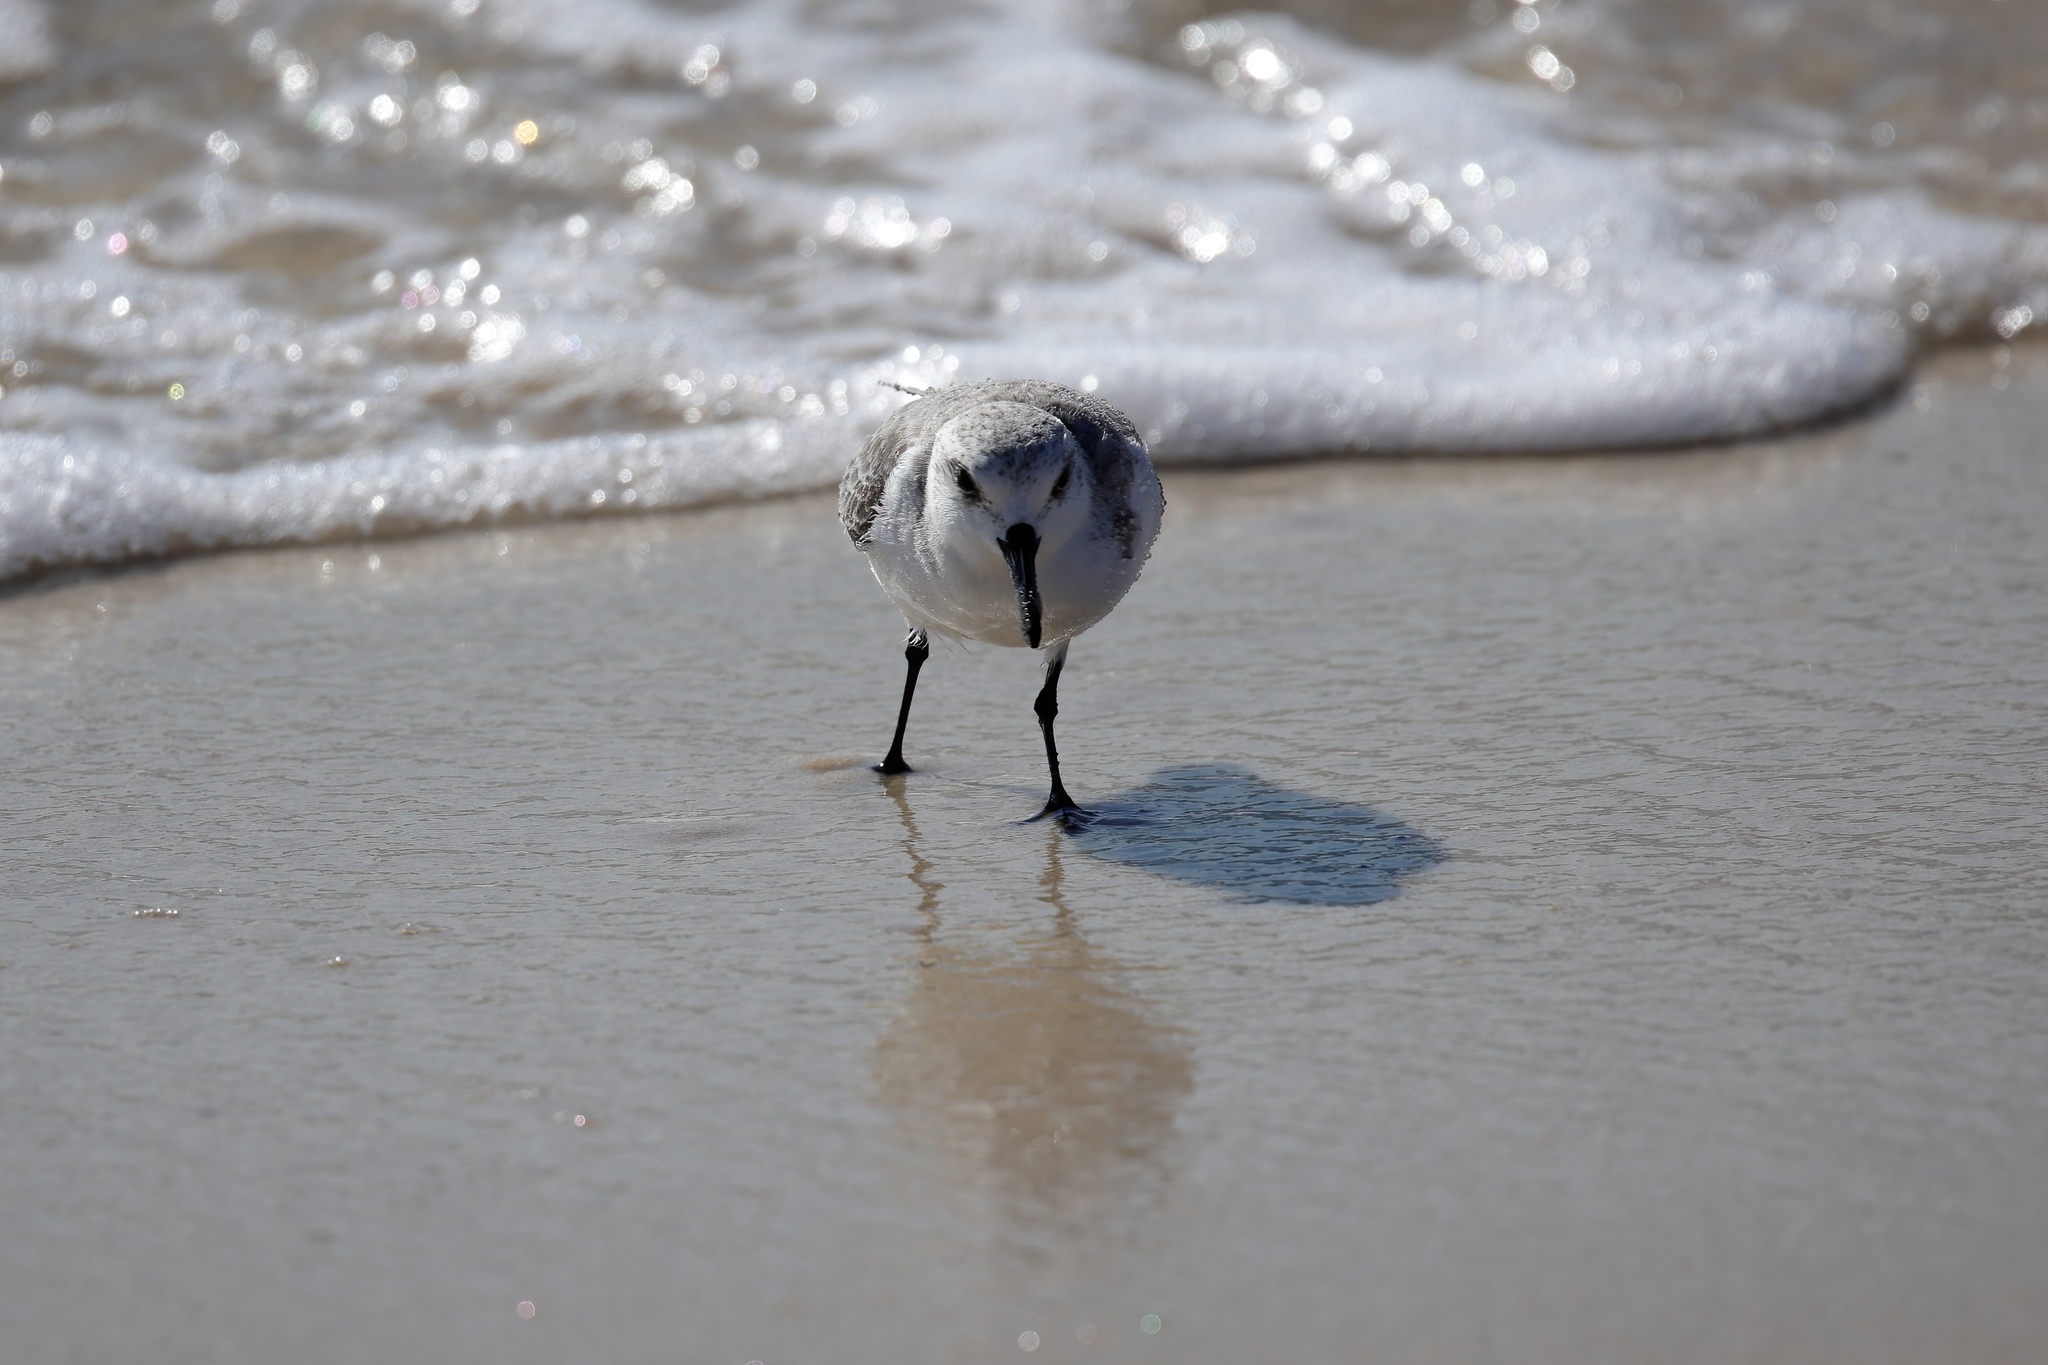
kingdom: Animalia
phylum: Chordata
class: Aves
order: Charadriiformes
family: Scolopacidae
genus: Calidris
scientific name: Calidris alba
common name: Sanderling
